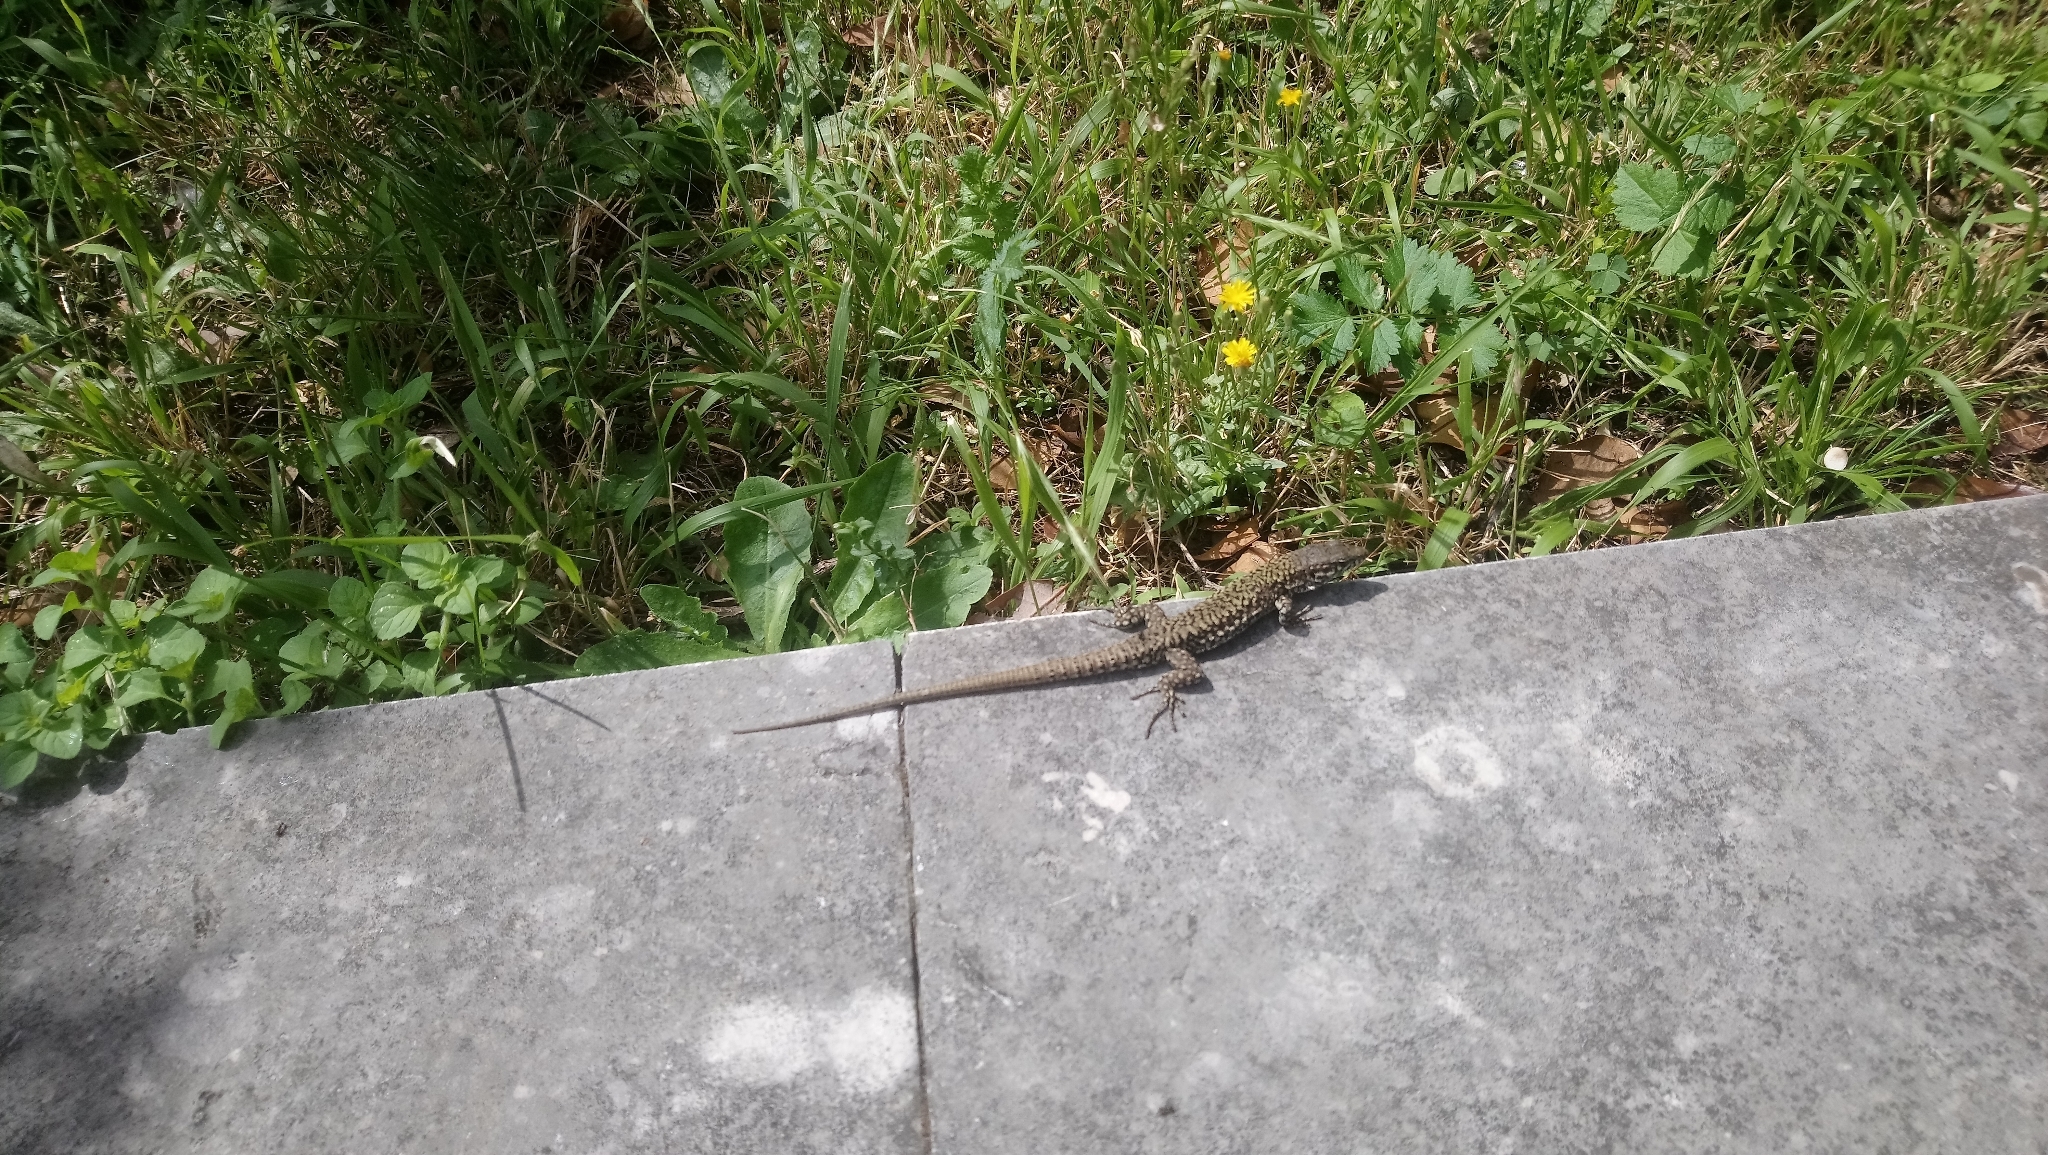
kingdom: Animalia
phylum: Chordata
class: Squamata
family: Lacertidae
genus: Podarcis
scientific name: Podarcis muralis
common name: Common wall lizard
